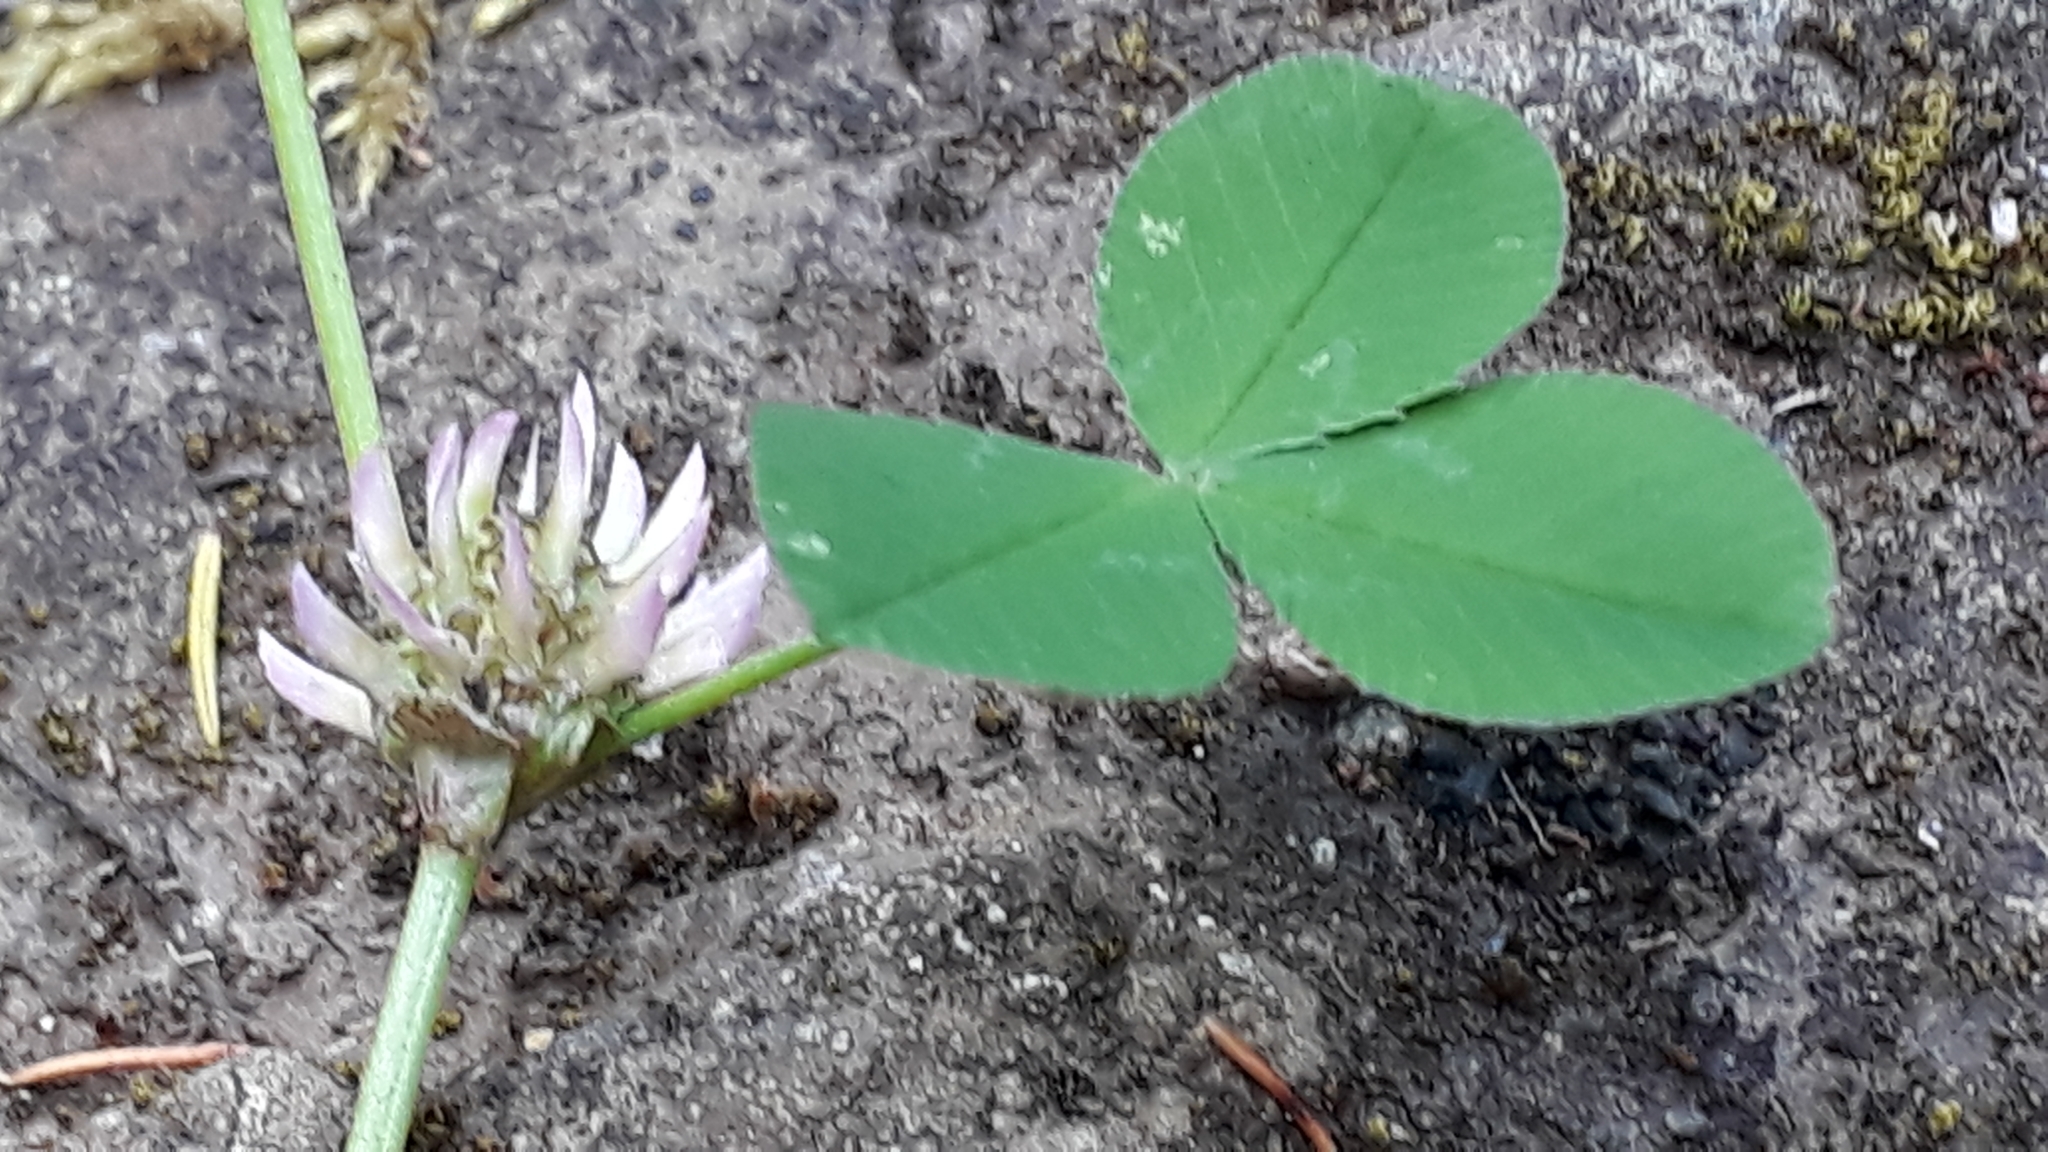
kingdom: Plantae
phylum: Tracheophyta
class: Magnoliopsida
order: Fabales
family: Fabaceae
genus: Trifolium
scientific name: Trifolium tomentosum
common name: Woolly clover
